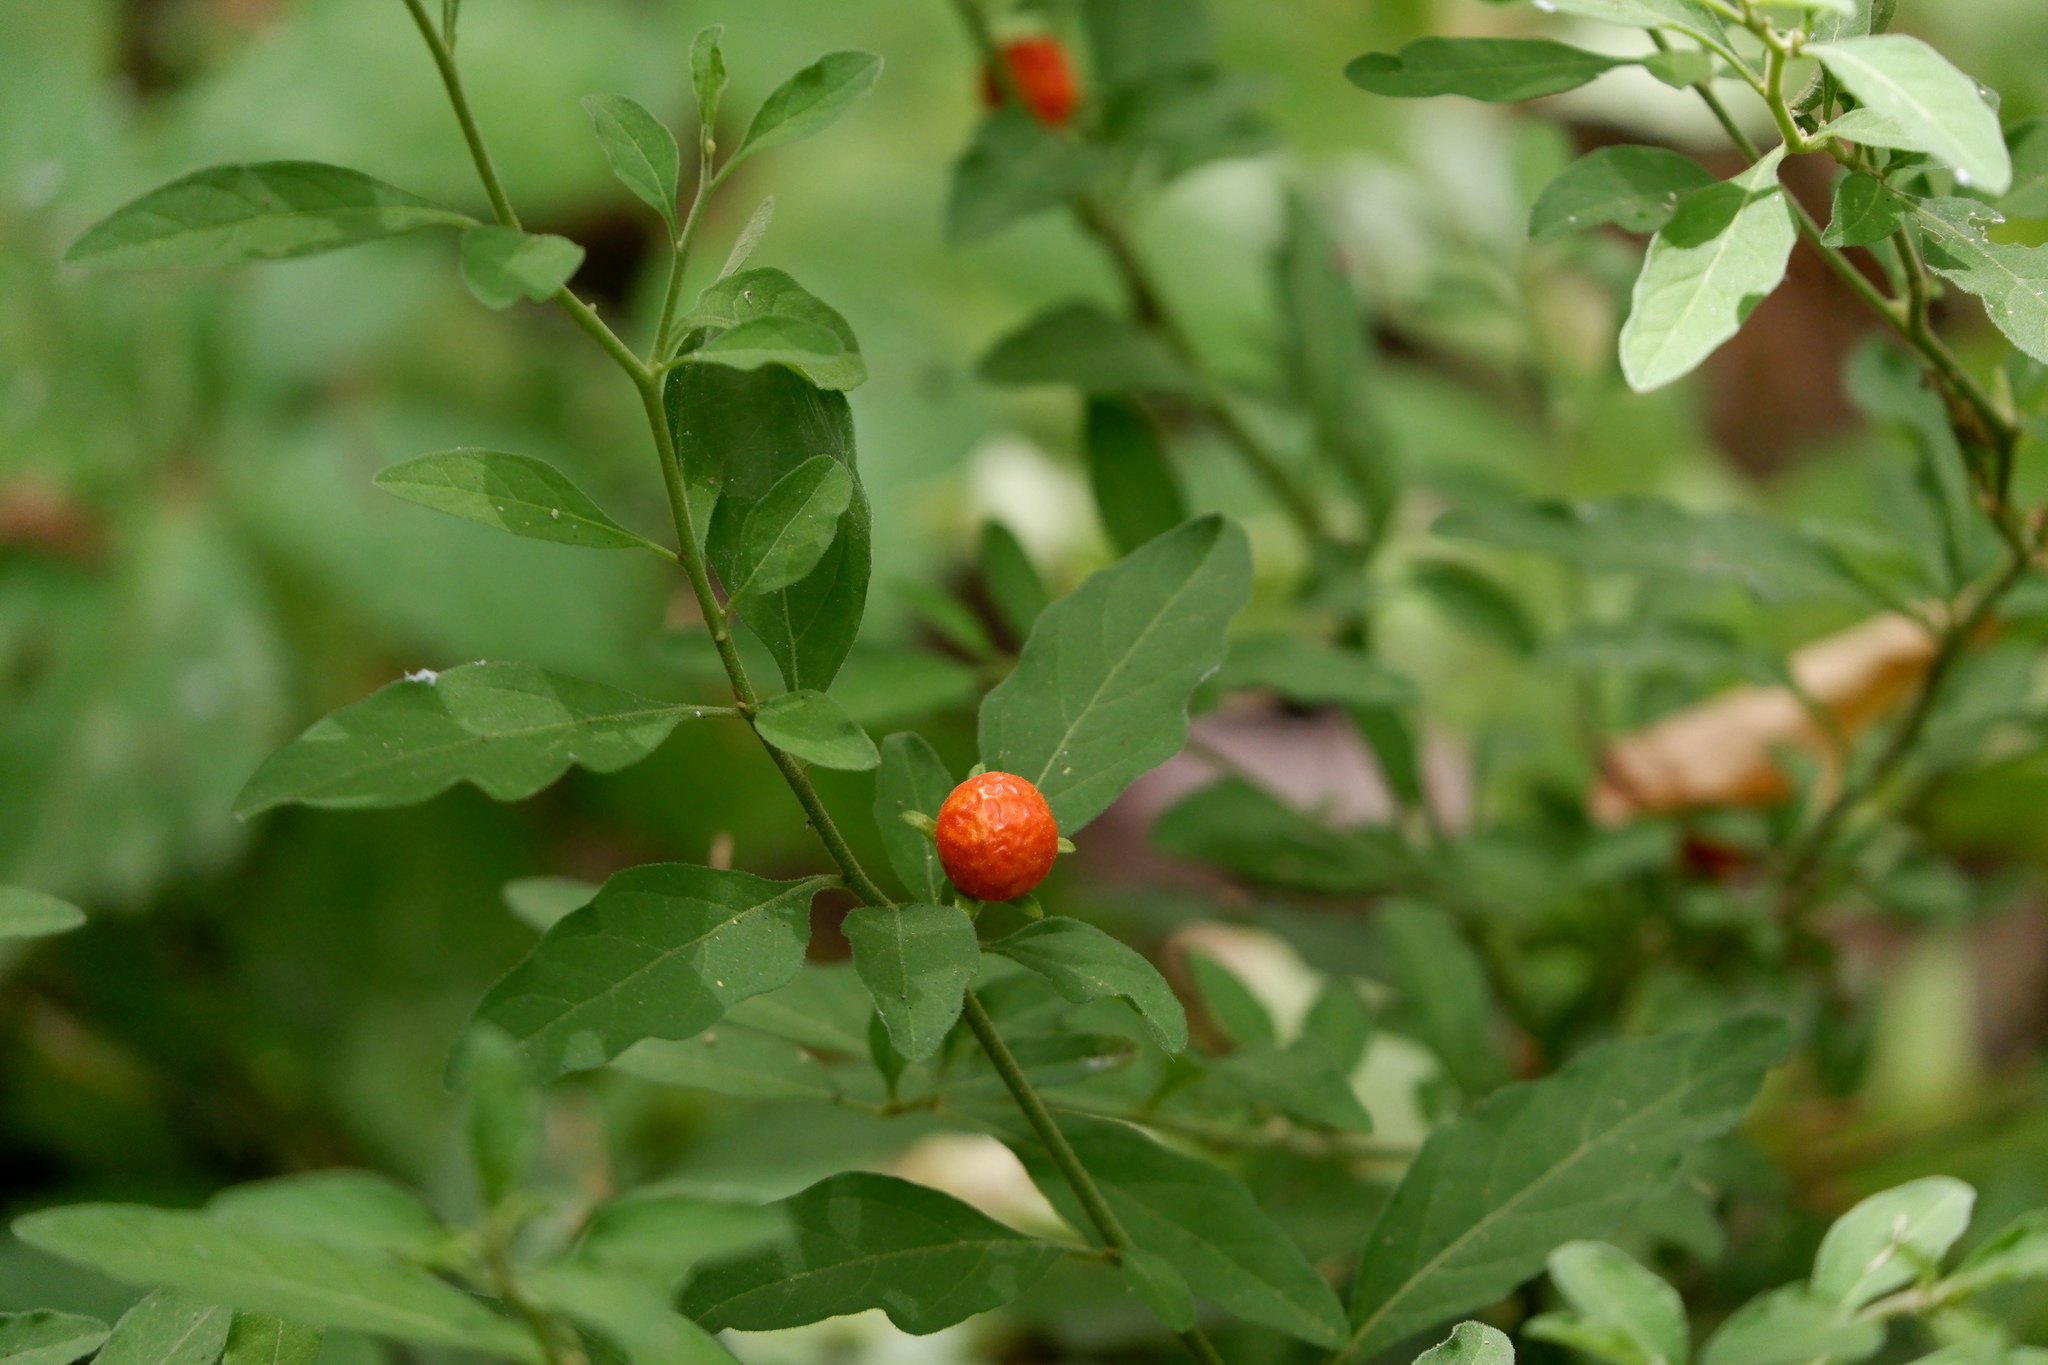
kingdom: Plantae
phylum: Tracheophyta
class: Magnoliopsida
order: Solanales
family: Solanaceae
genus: Solanum
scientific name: Solanum pseudocapsicum
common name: Jerusalem cherry
